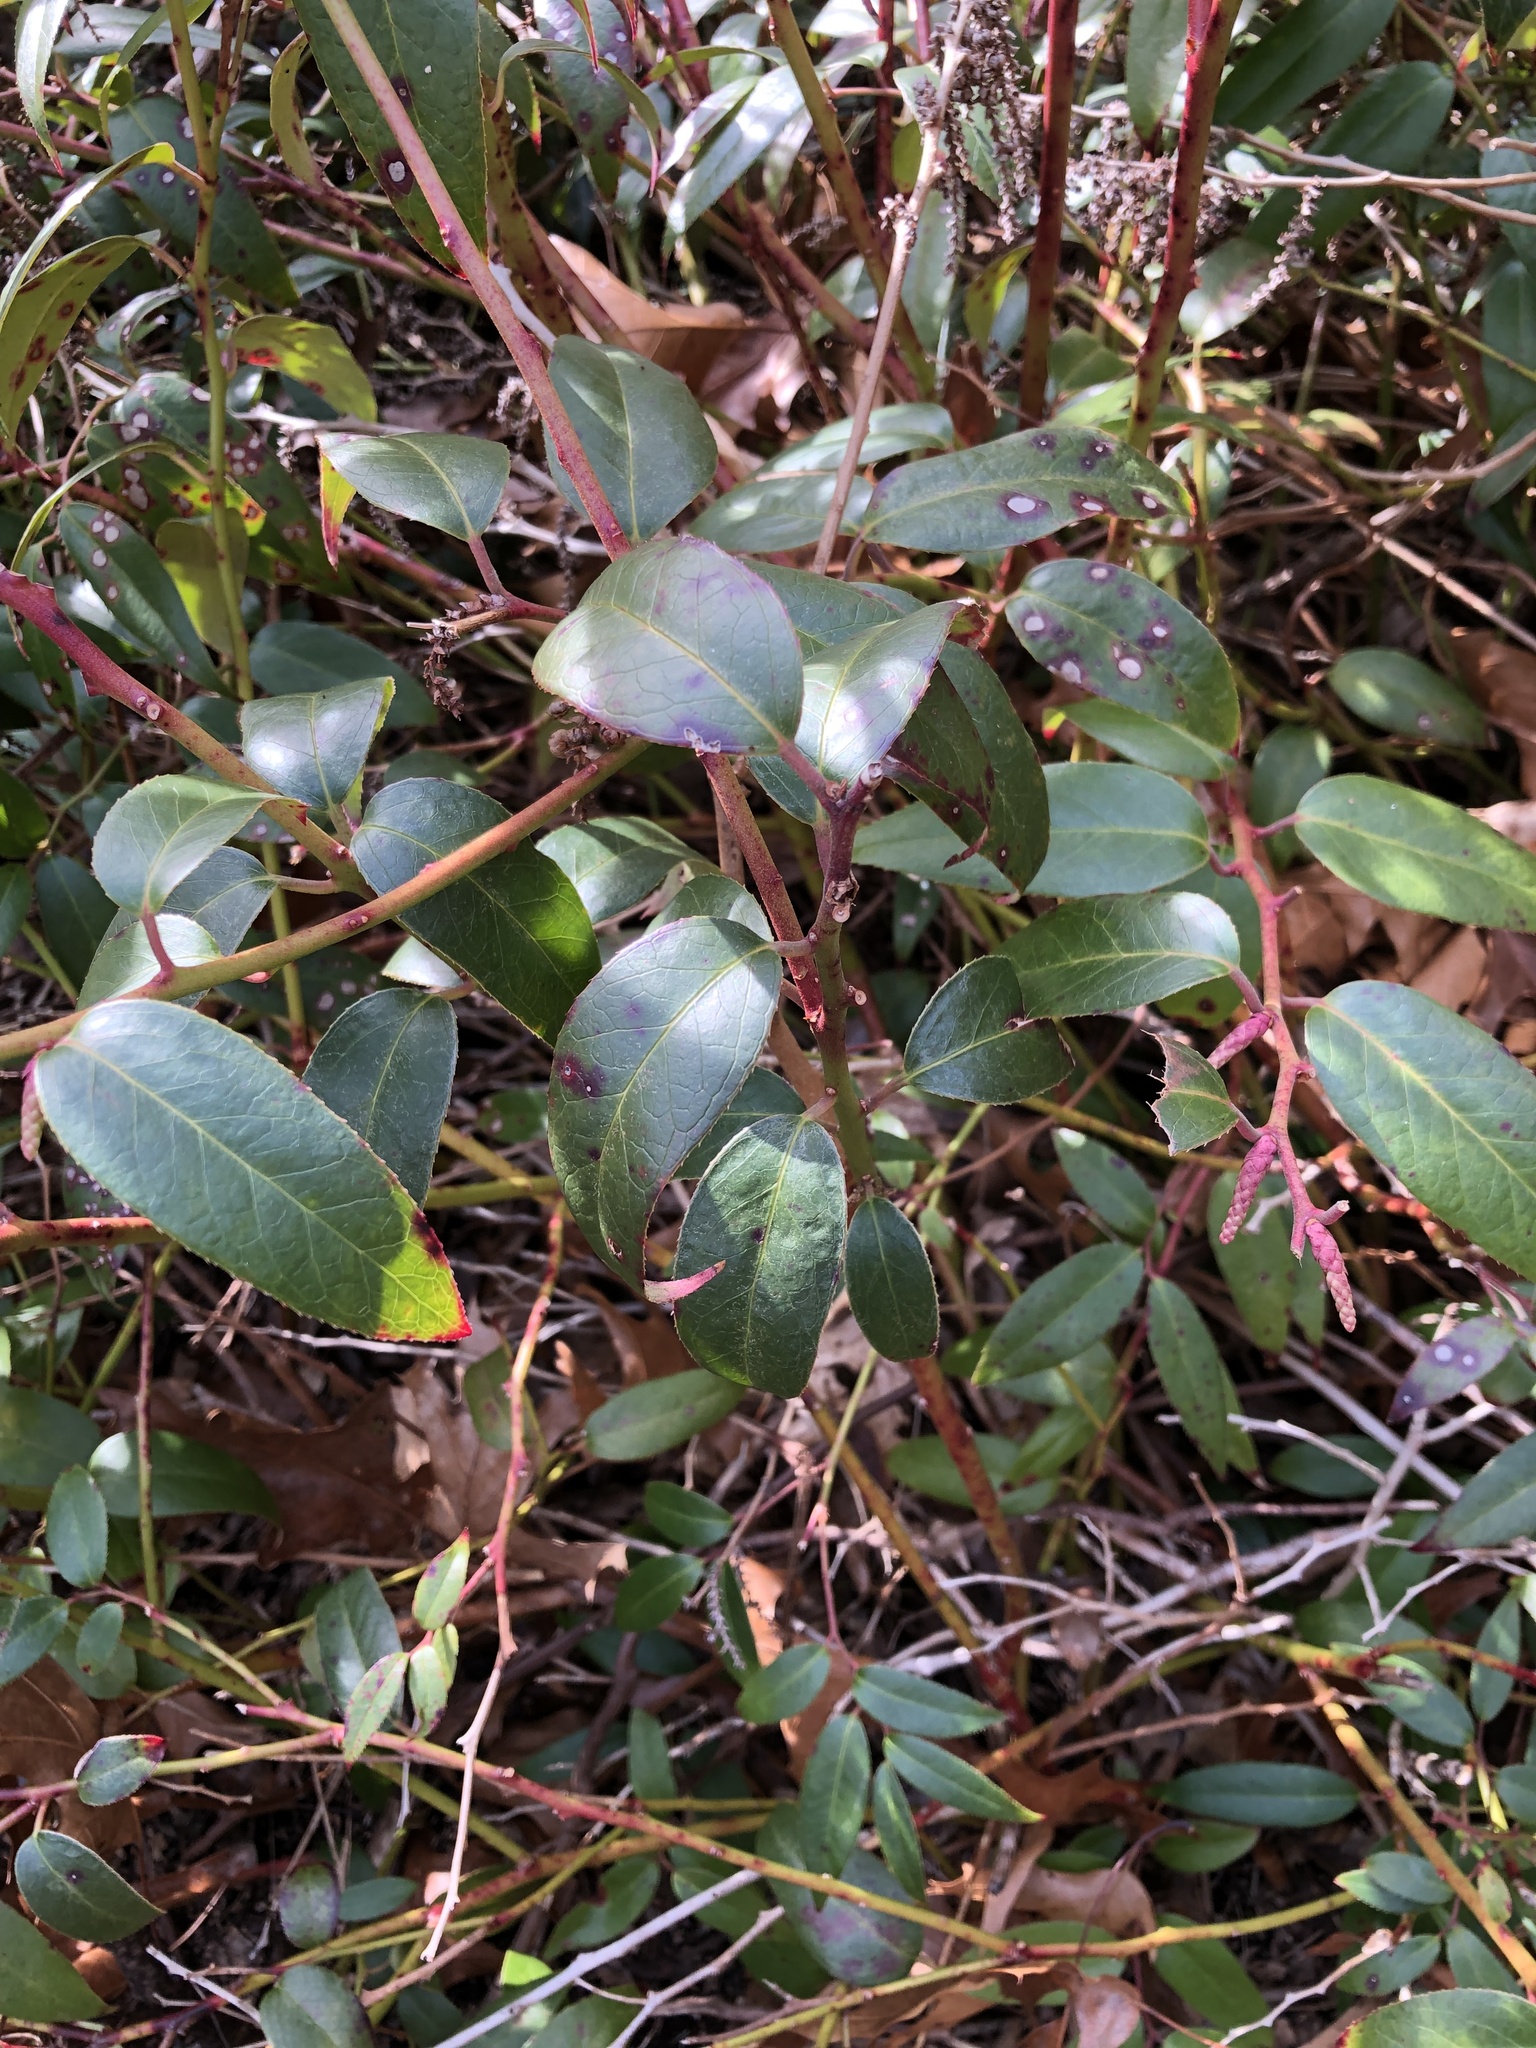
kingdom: Plantae
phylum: Tracheophyta
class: Magnoliopsida
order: Ericales
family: Ericaceae
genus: Leucothoe
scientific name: Leucothoe fontanesiana
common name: Fetterbush
